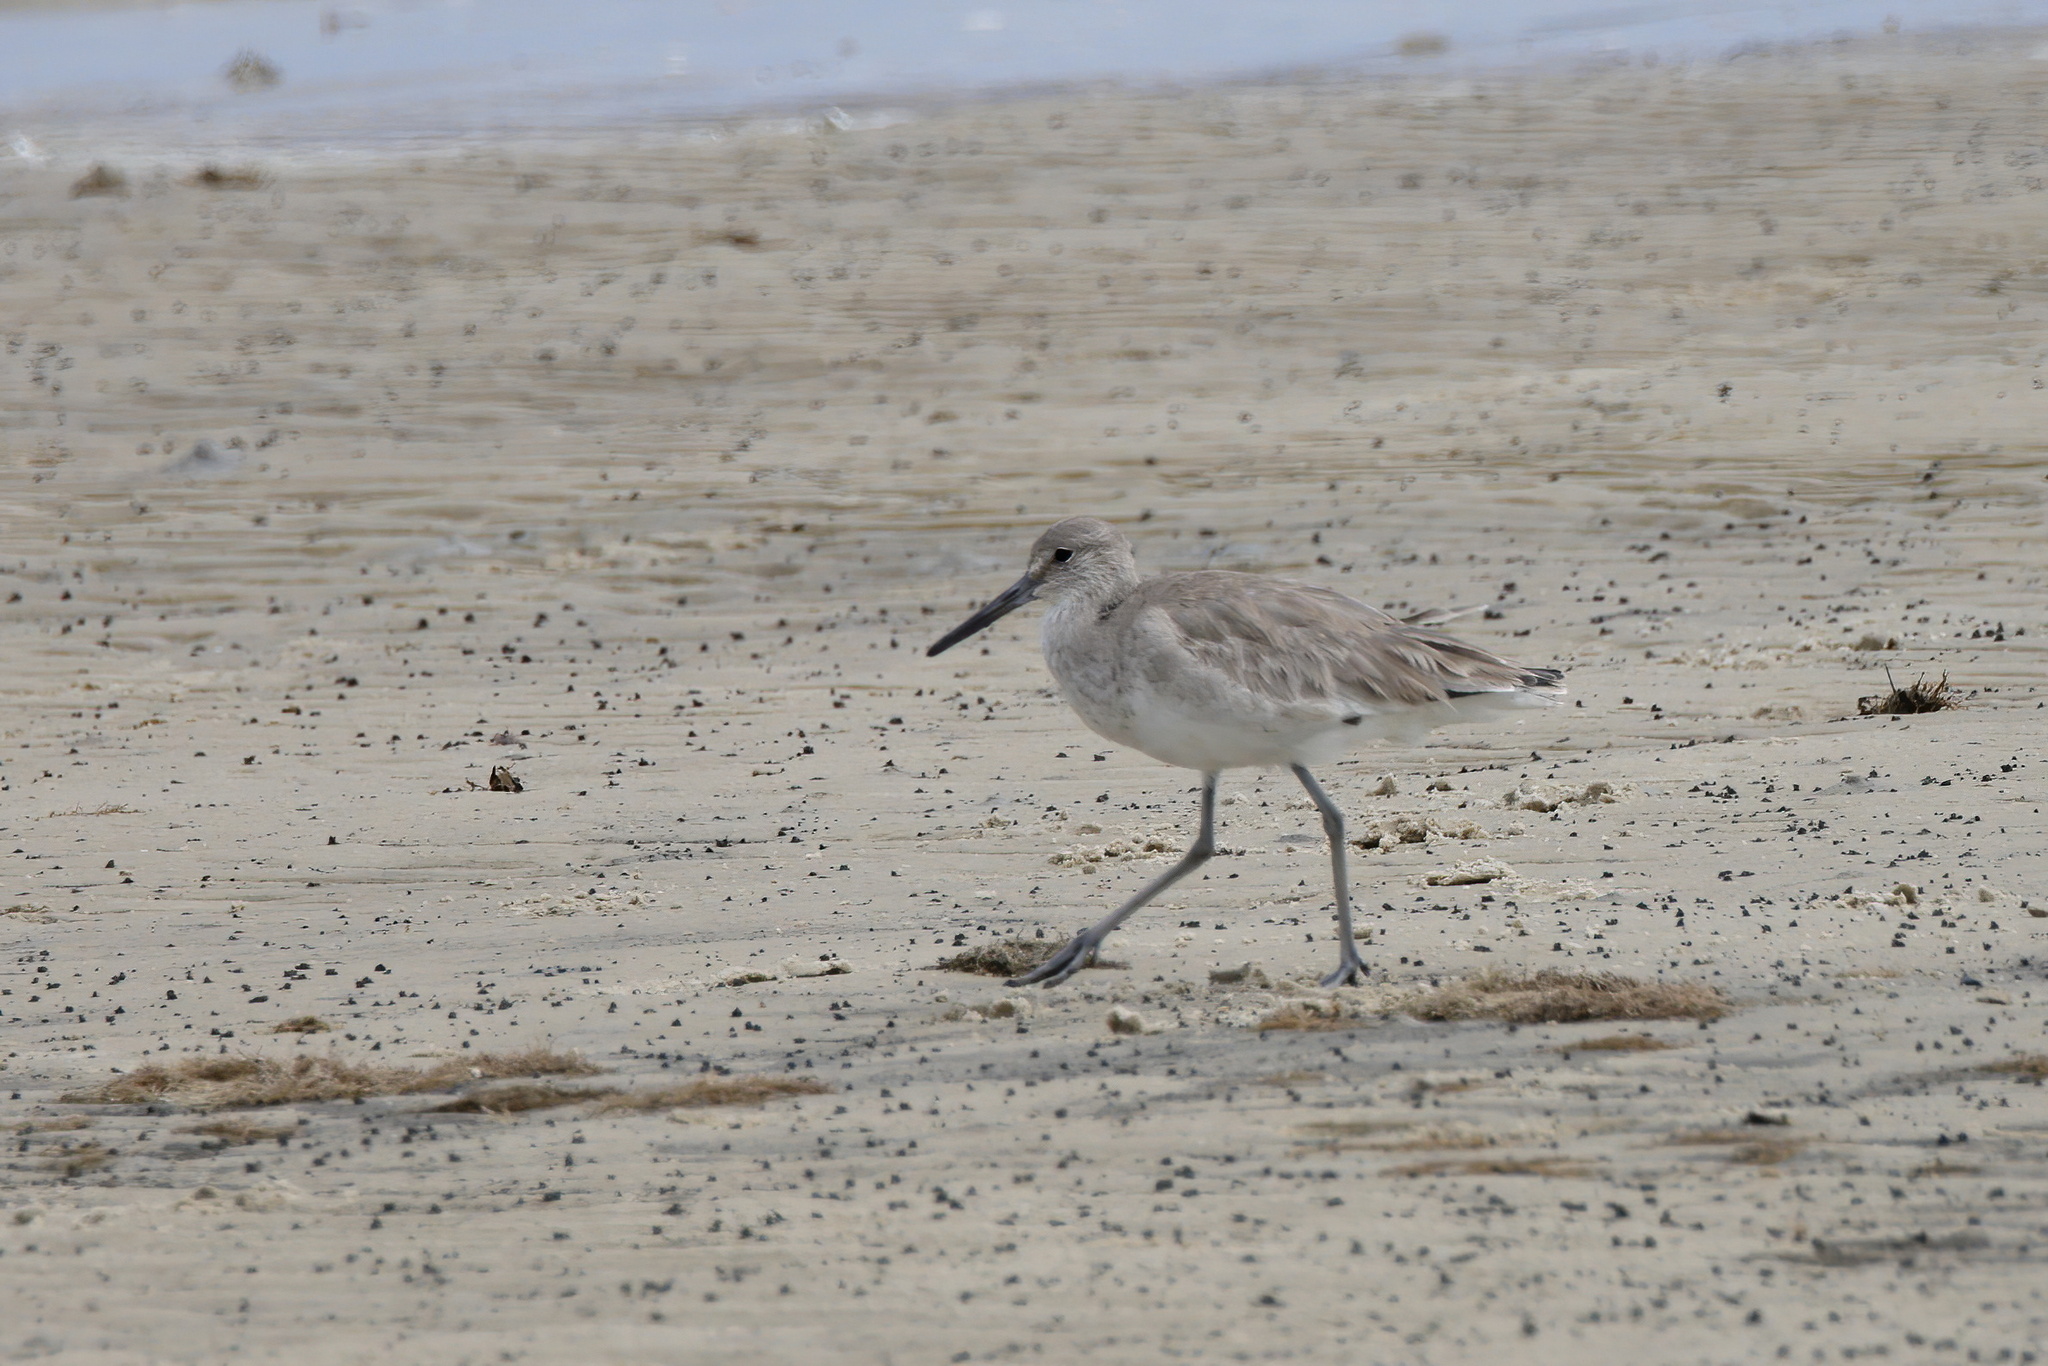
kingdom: Animalia
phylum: Chordata
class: Aves
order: Charadriiformes
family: Scolopacidae
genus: Tringa
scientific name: Tringa semipalmata
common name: Willet
